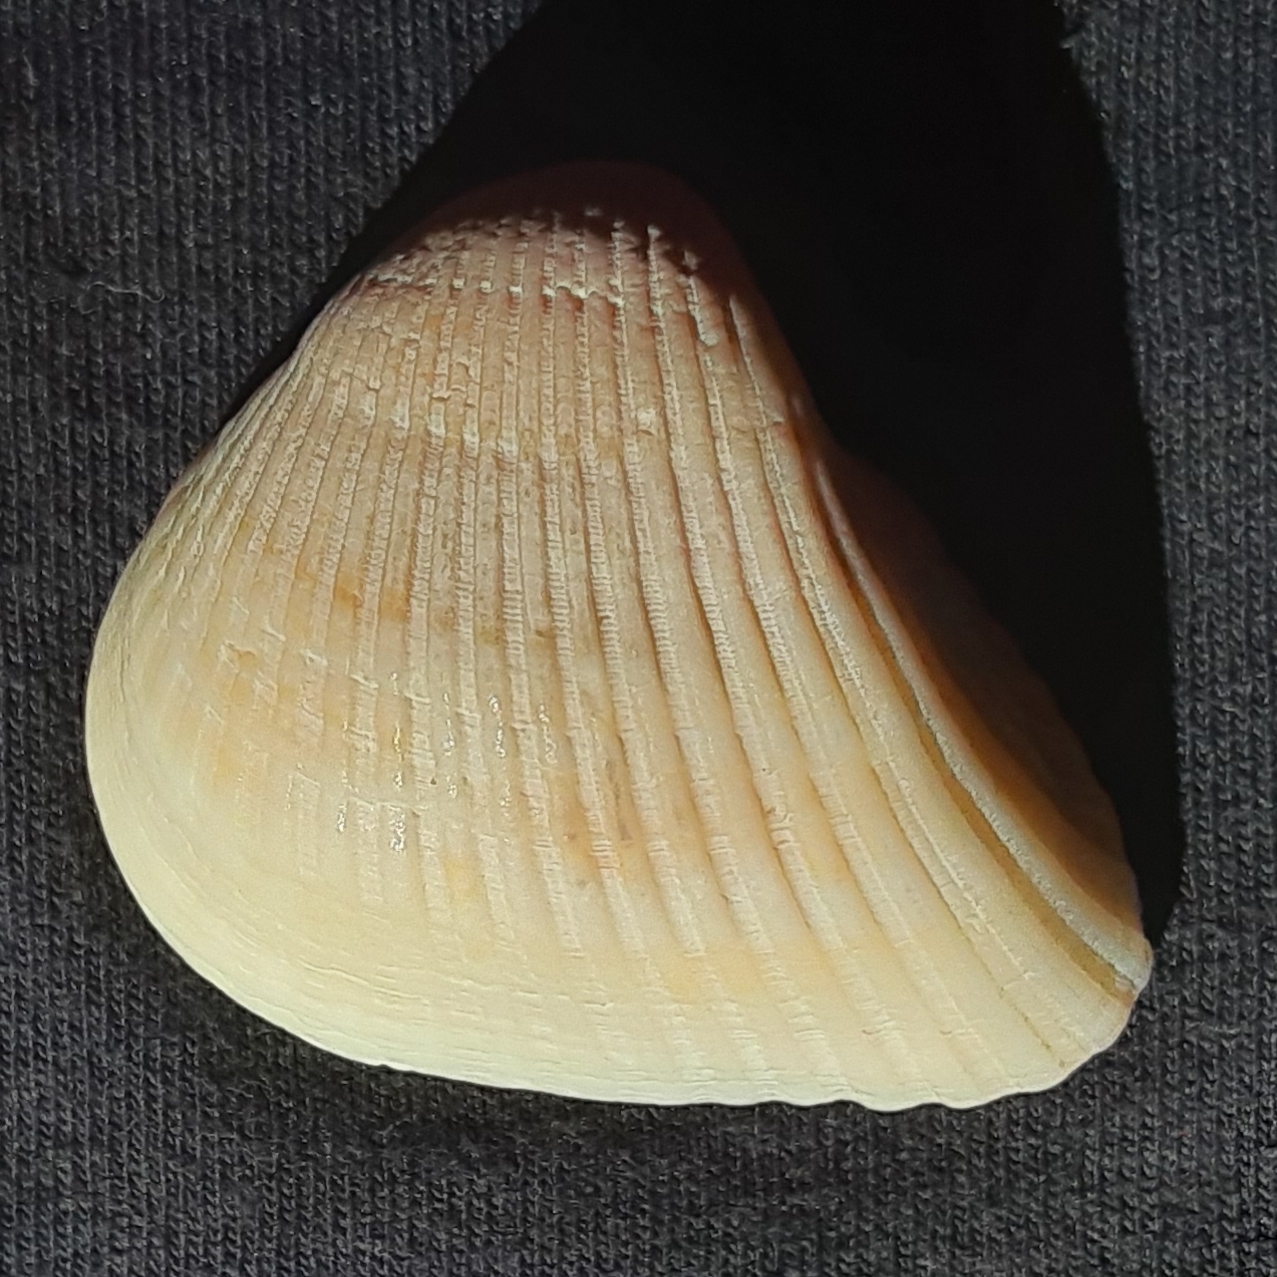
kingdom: Animalia
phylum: Mollusca
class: Bivalvia
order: Arcida
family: Noetiidae
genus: Noetia
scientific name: Noetia ponderosa
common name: Ponderous ark
